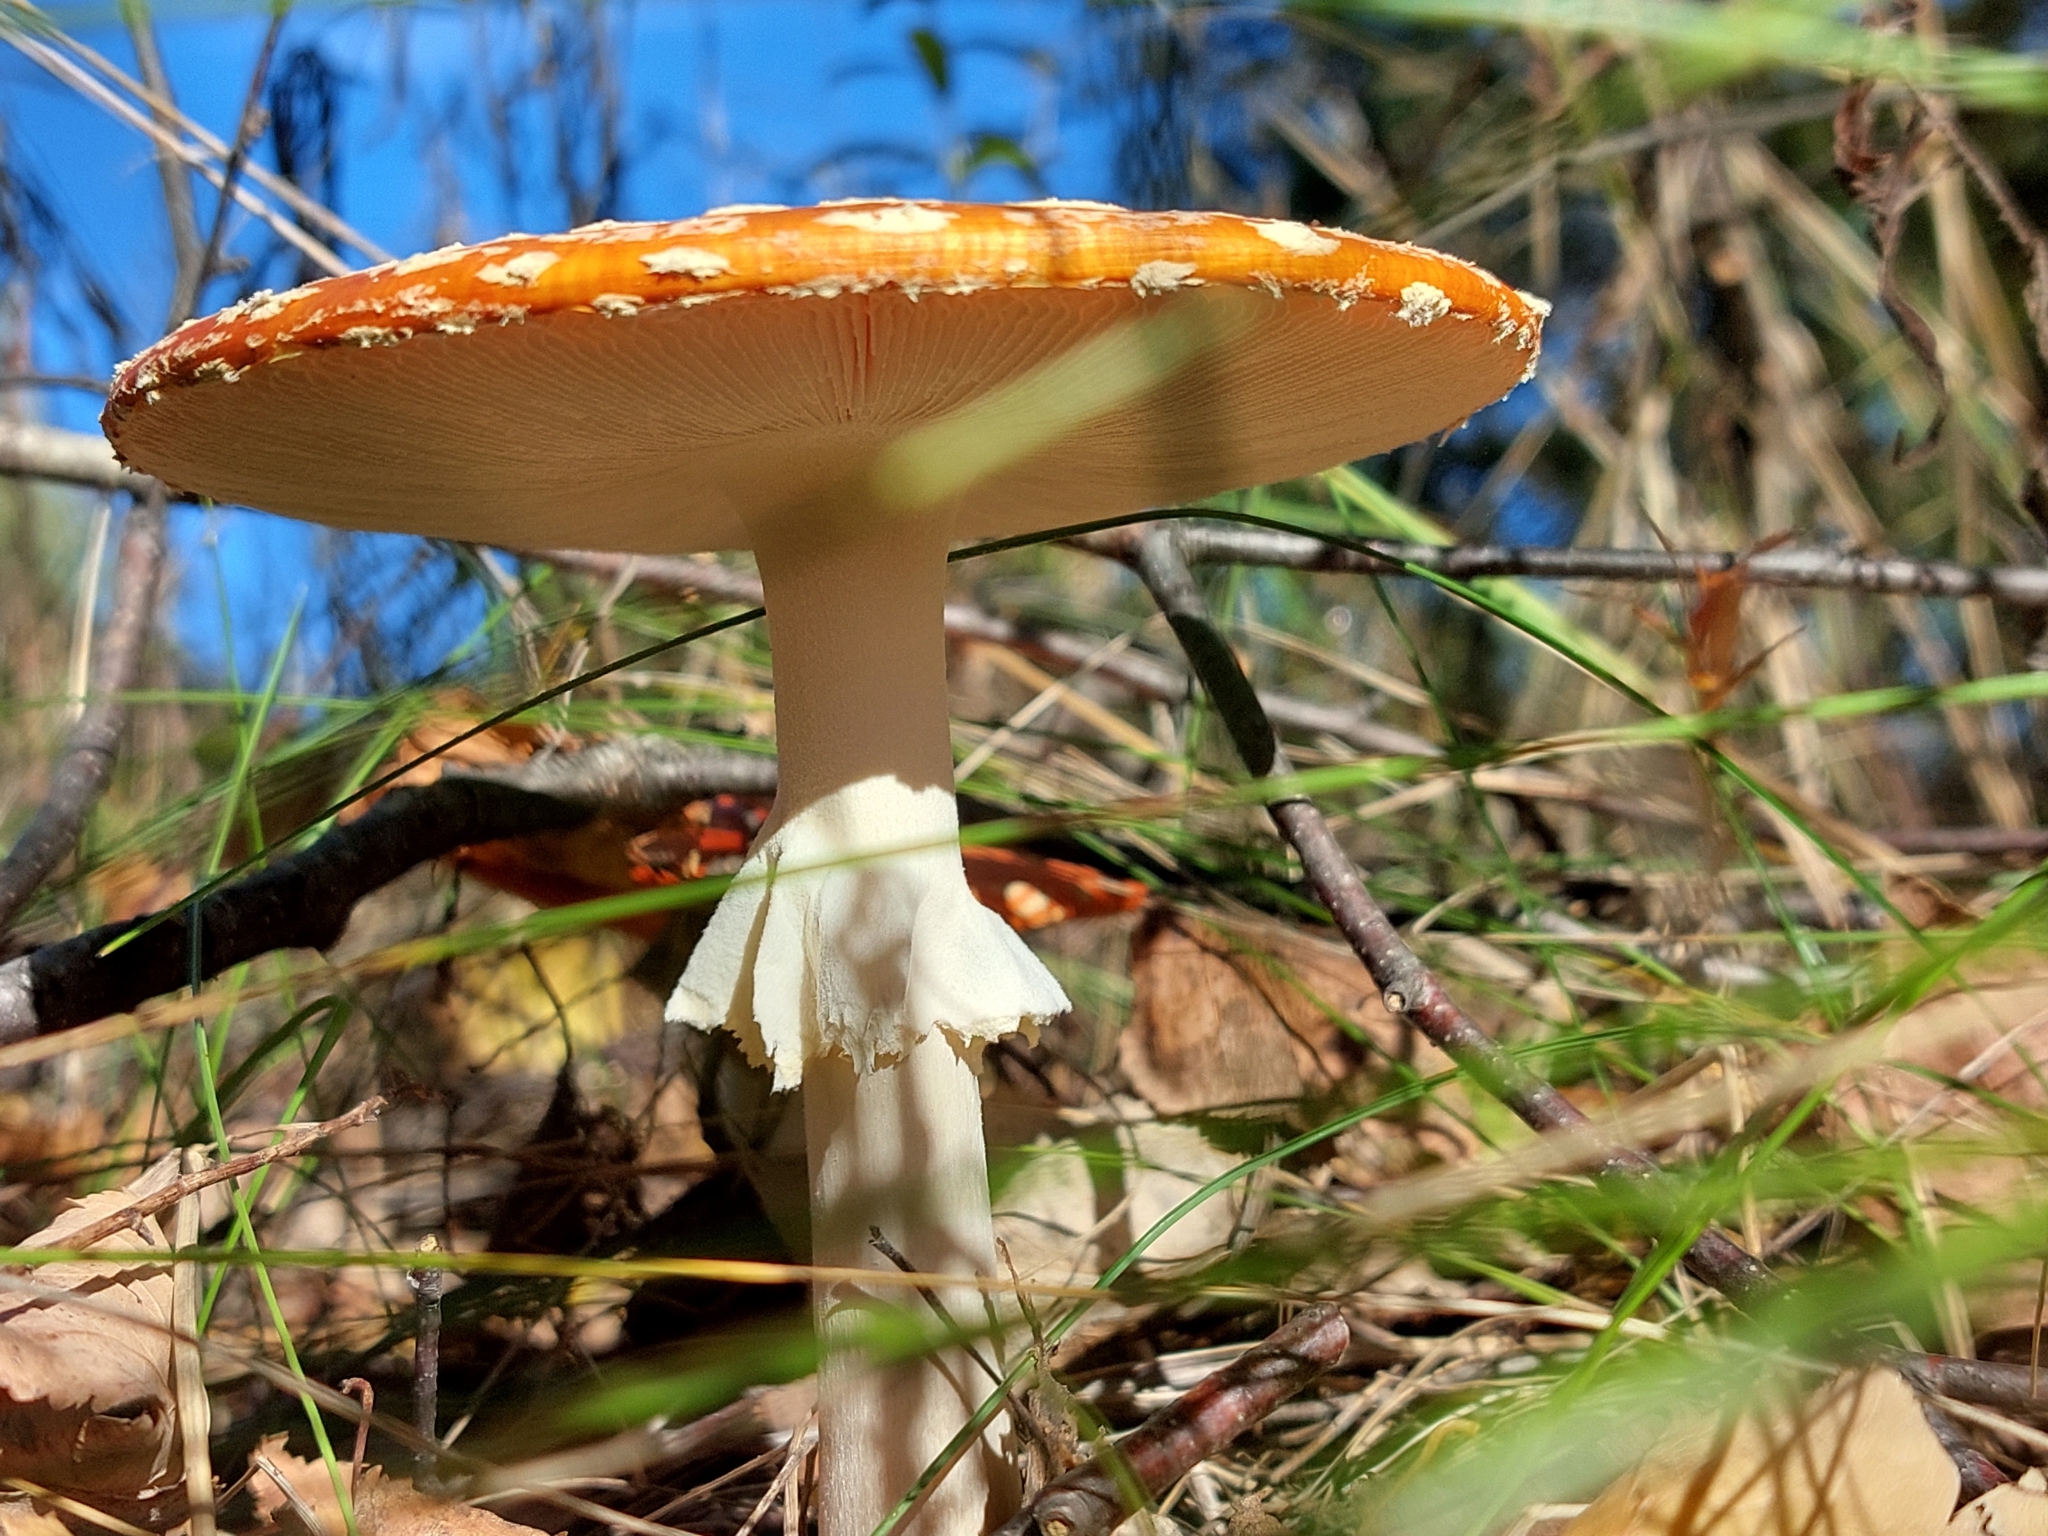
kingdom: Fungi
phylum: Basidiomycota
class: Agaricomycetes
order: Agaricales
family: Amanitaceae
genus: Amanita
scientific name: Amanita muscaria
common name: Fly agaric
